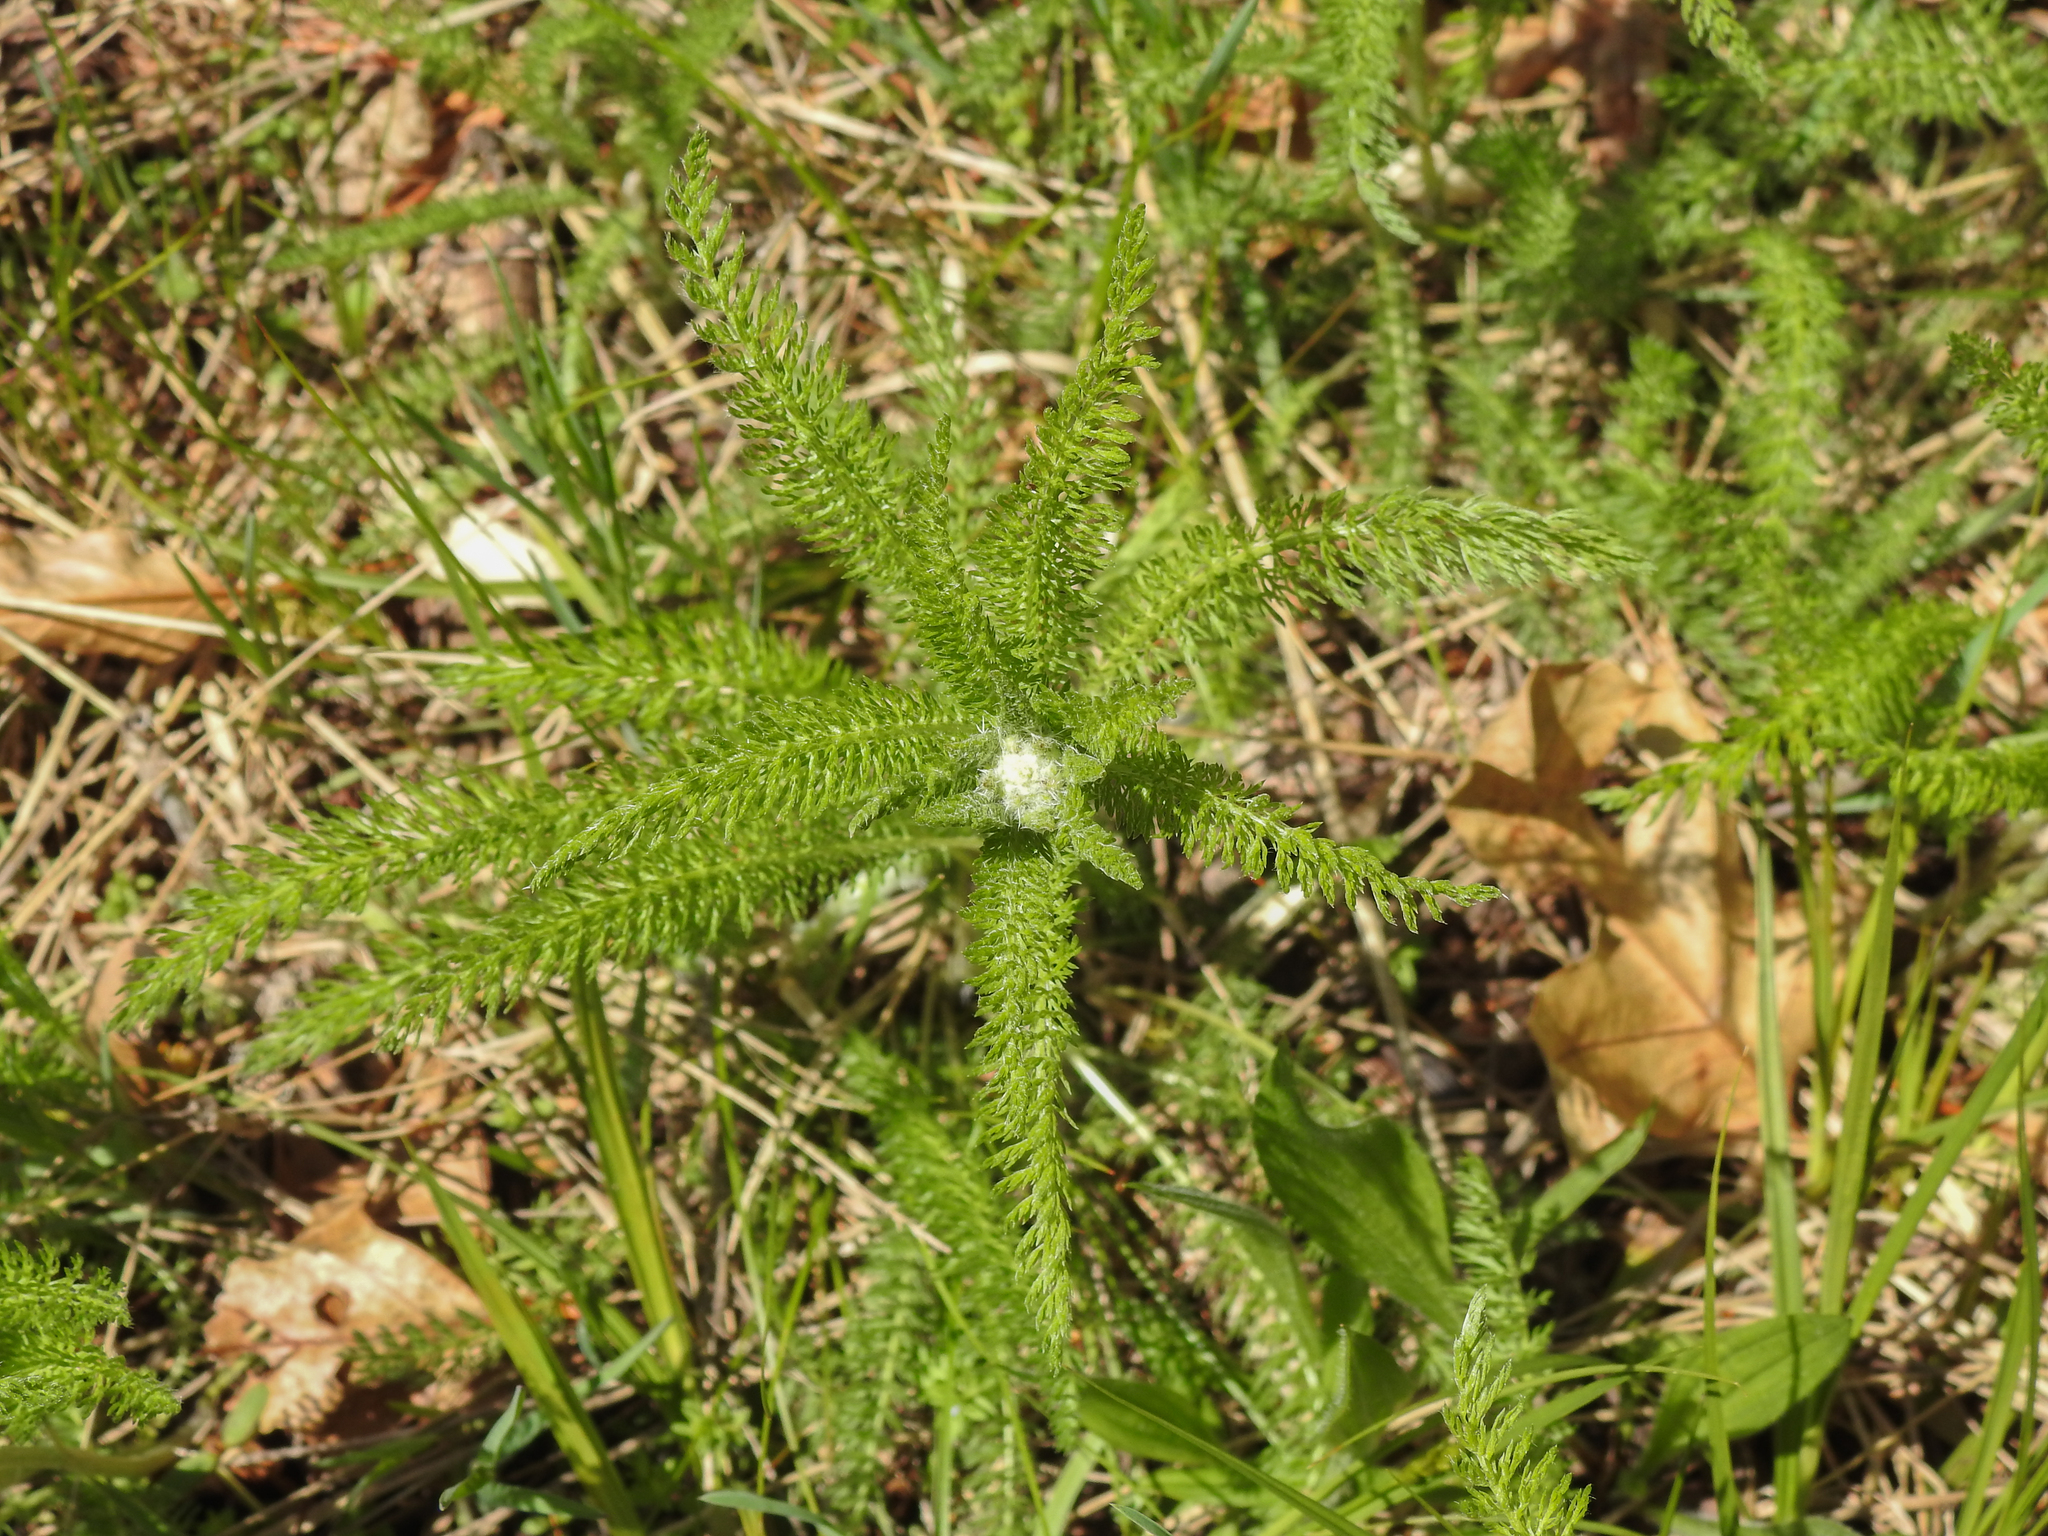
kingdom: Plantae
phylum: Tracheophyta
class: Magnoliopsida
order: Asterales
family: Asteraceae
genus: Achillea
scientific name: Achillea millefolium
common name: Yarrow
